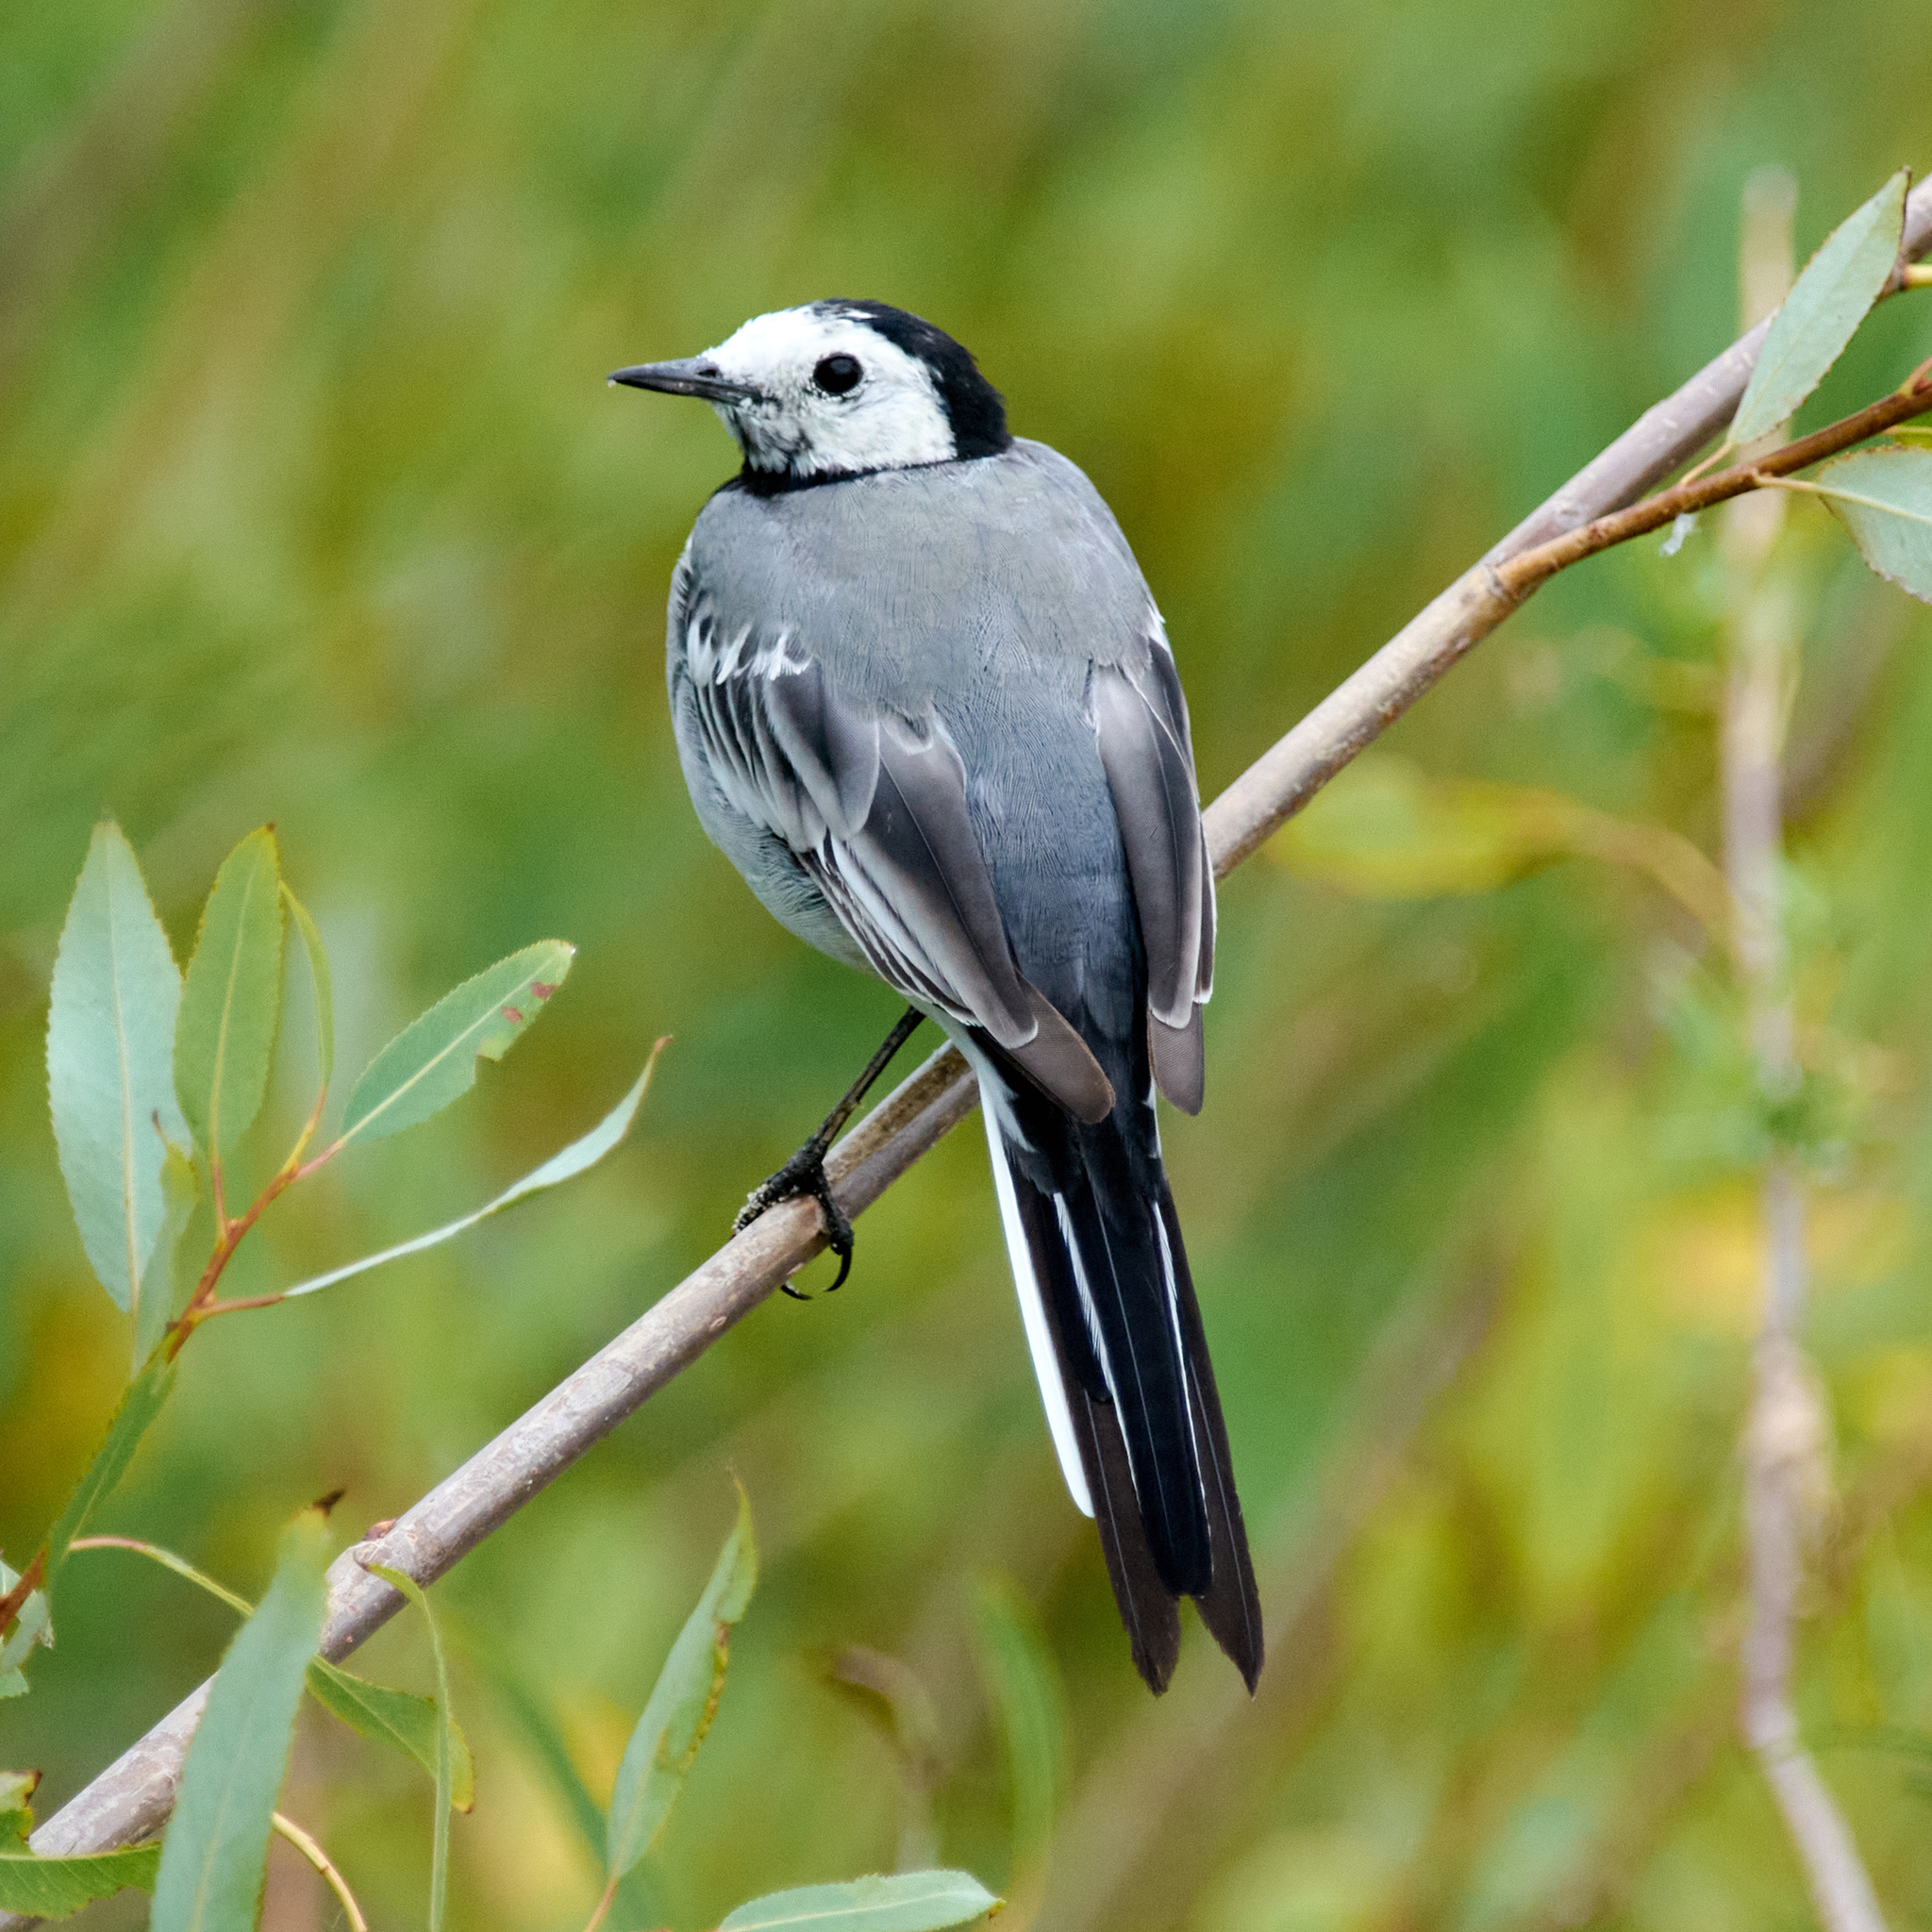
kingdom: Animalia
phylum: Chordata
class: Aves
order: Passeriformes
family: Motacillidae
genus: Motacilla
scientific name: Motacilla alba
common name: White wagtail
